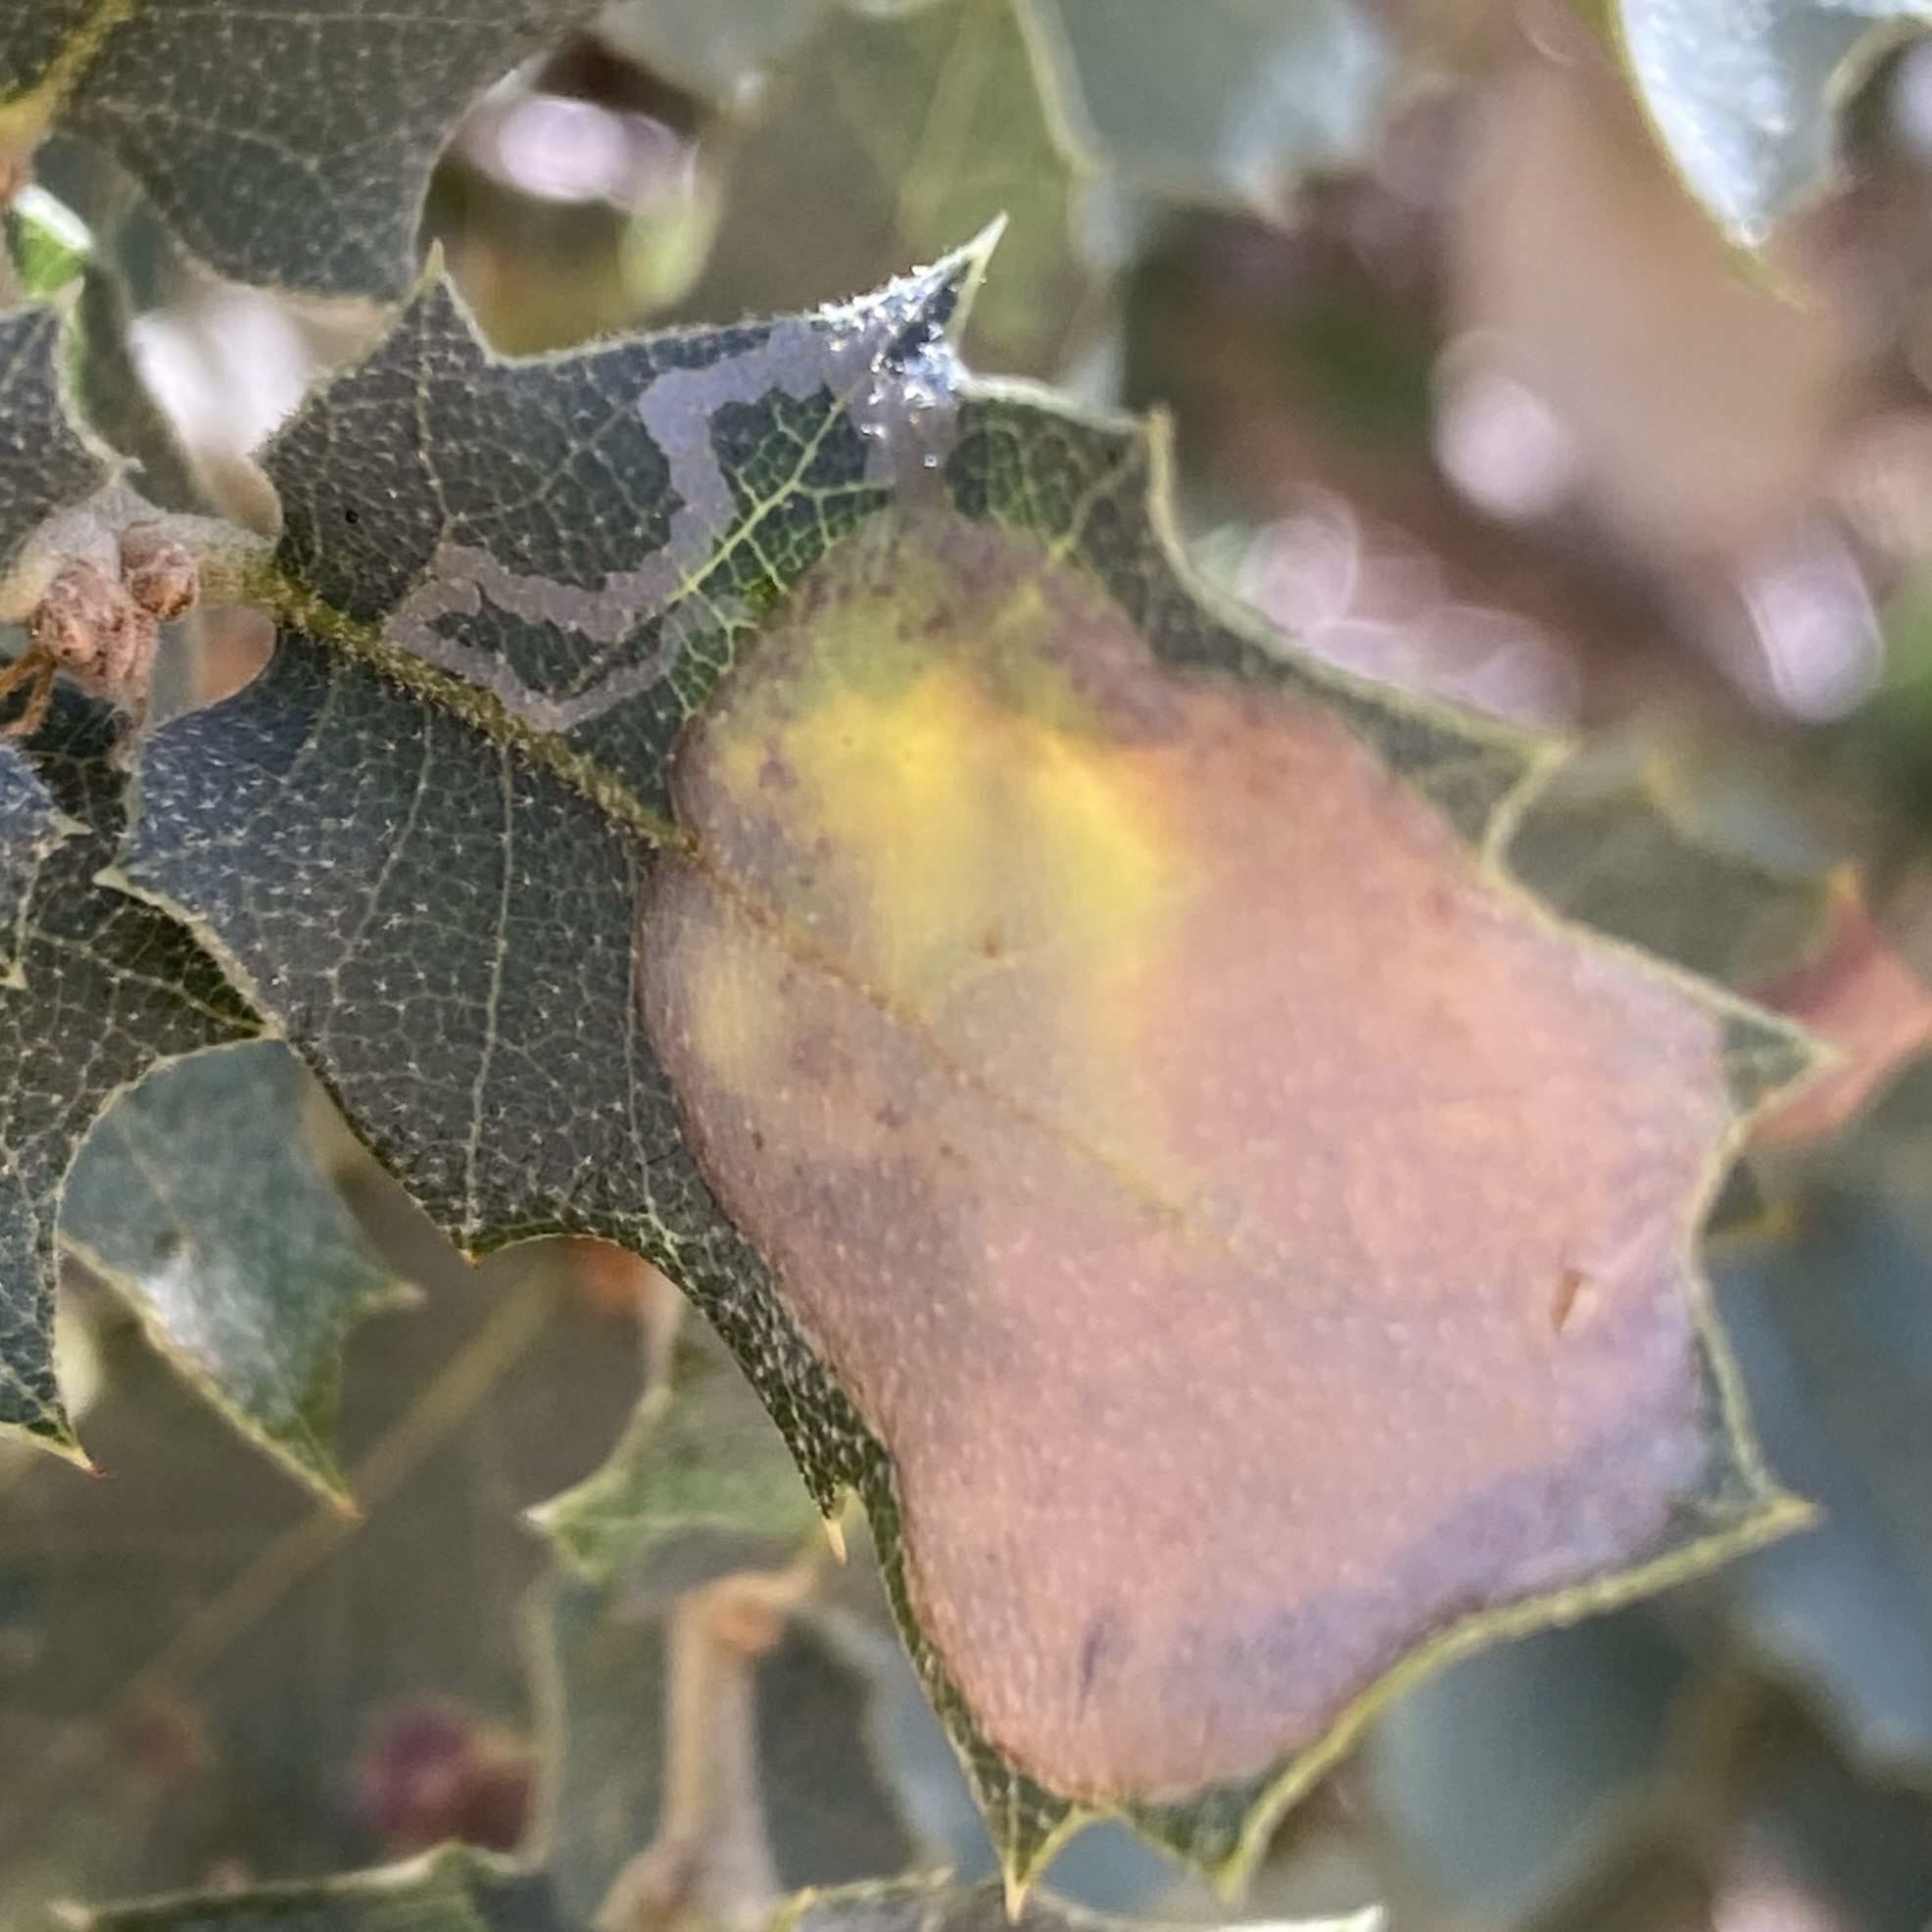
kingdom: Animalia
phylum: Arthropoda
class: Insecta
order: Lepidoptera
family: Gracillariidae
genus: Cryptolectica
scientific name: Cryptolectica
